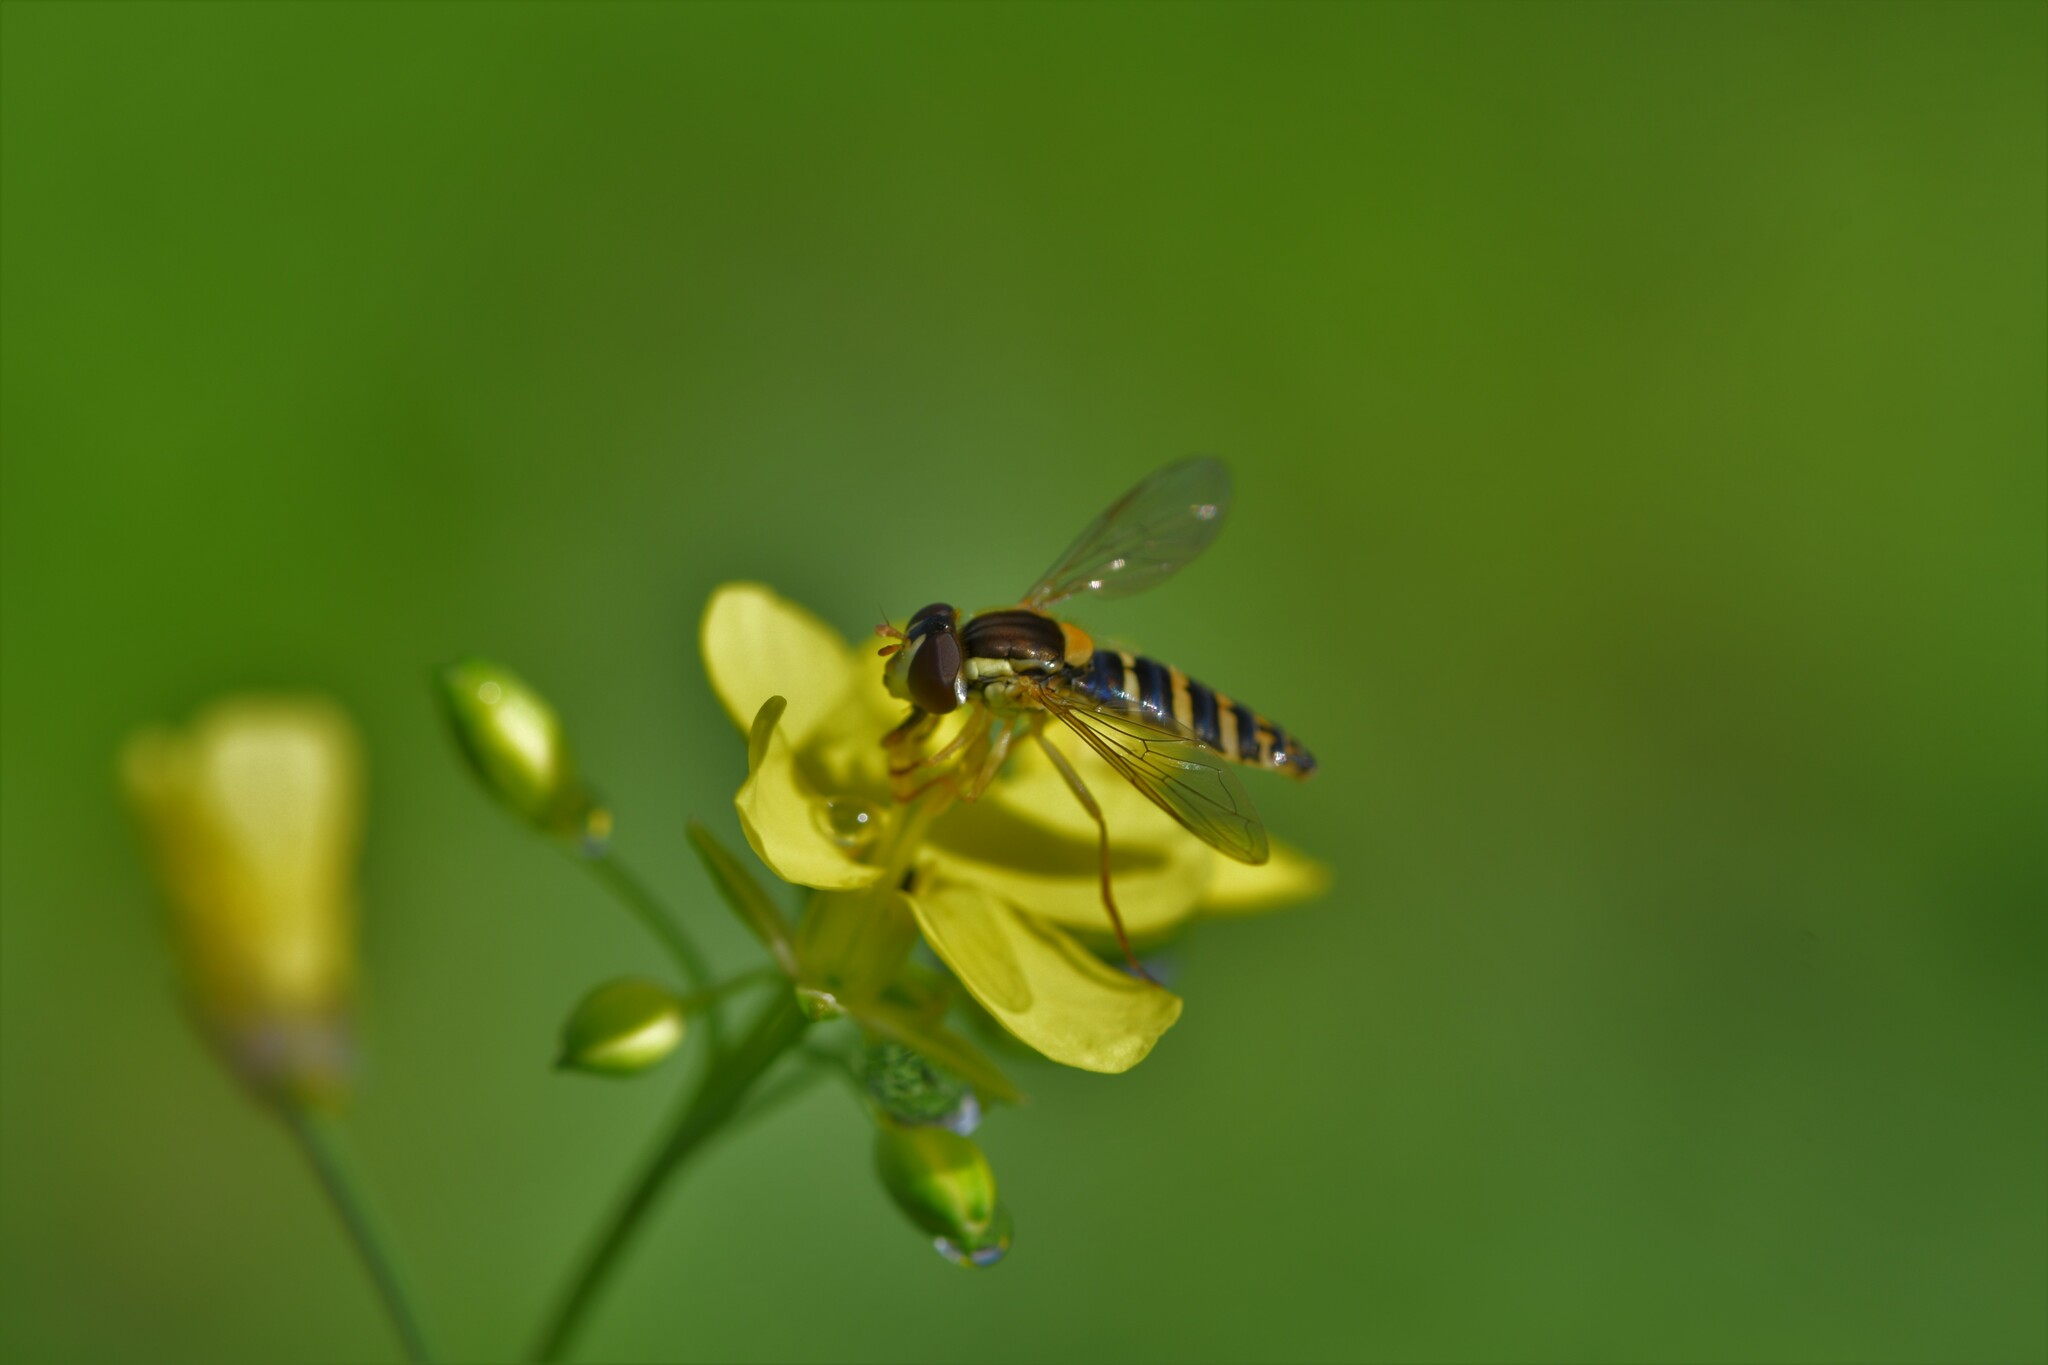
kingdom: Animalia
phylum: Arthropoda
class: Insecta
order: Diptera
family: Syrphidae
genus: Sphaerophoria
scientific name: Sphaerophoria
